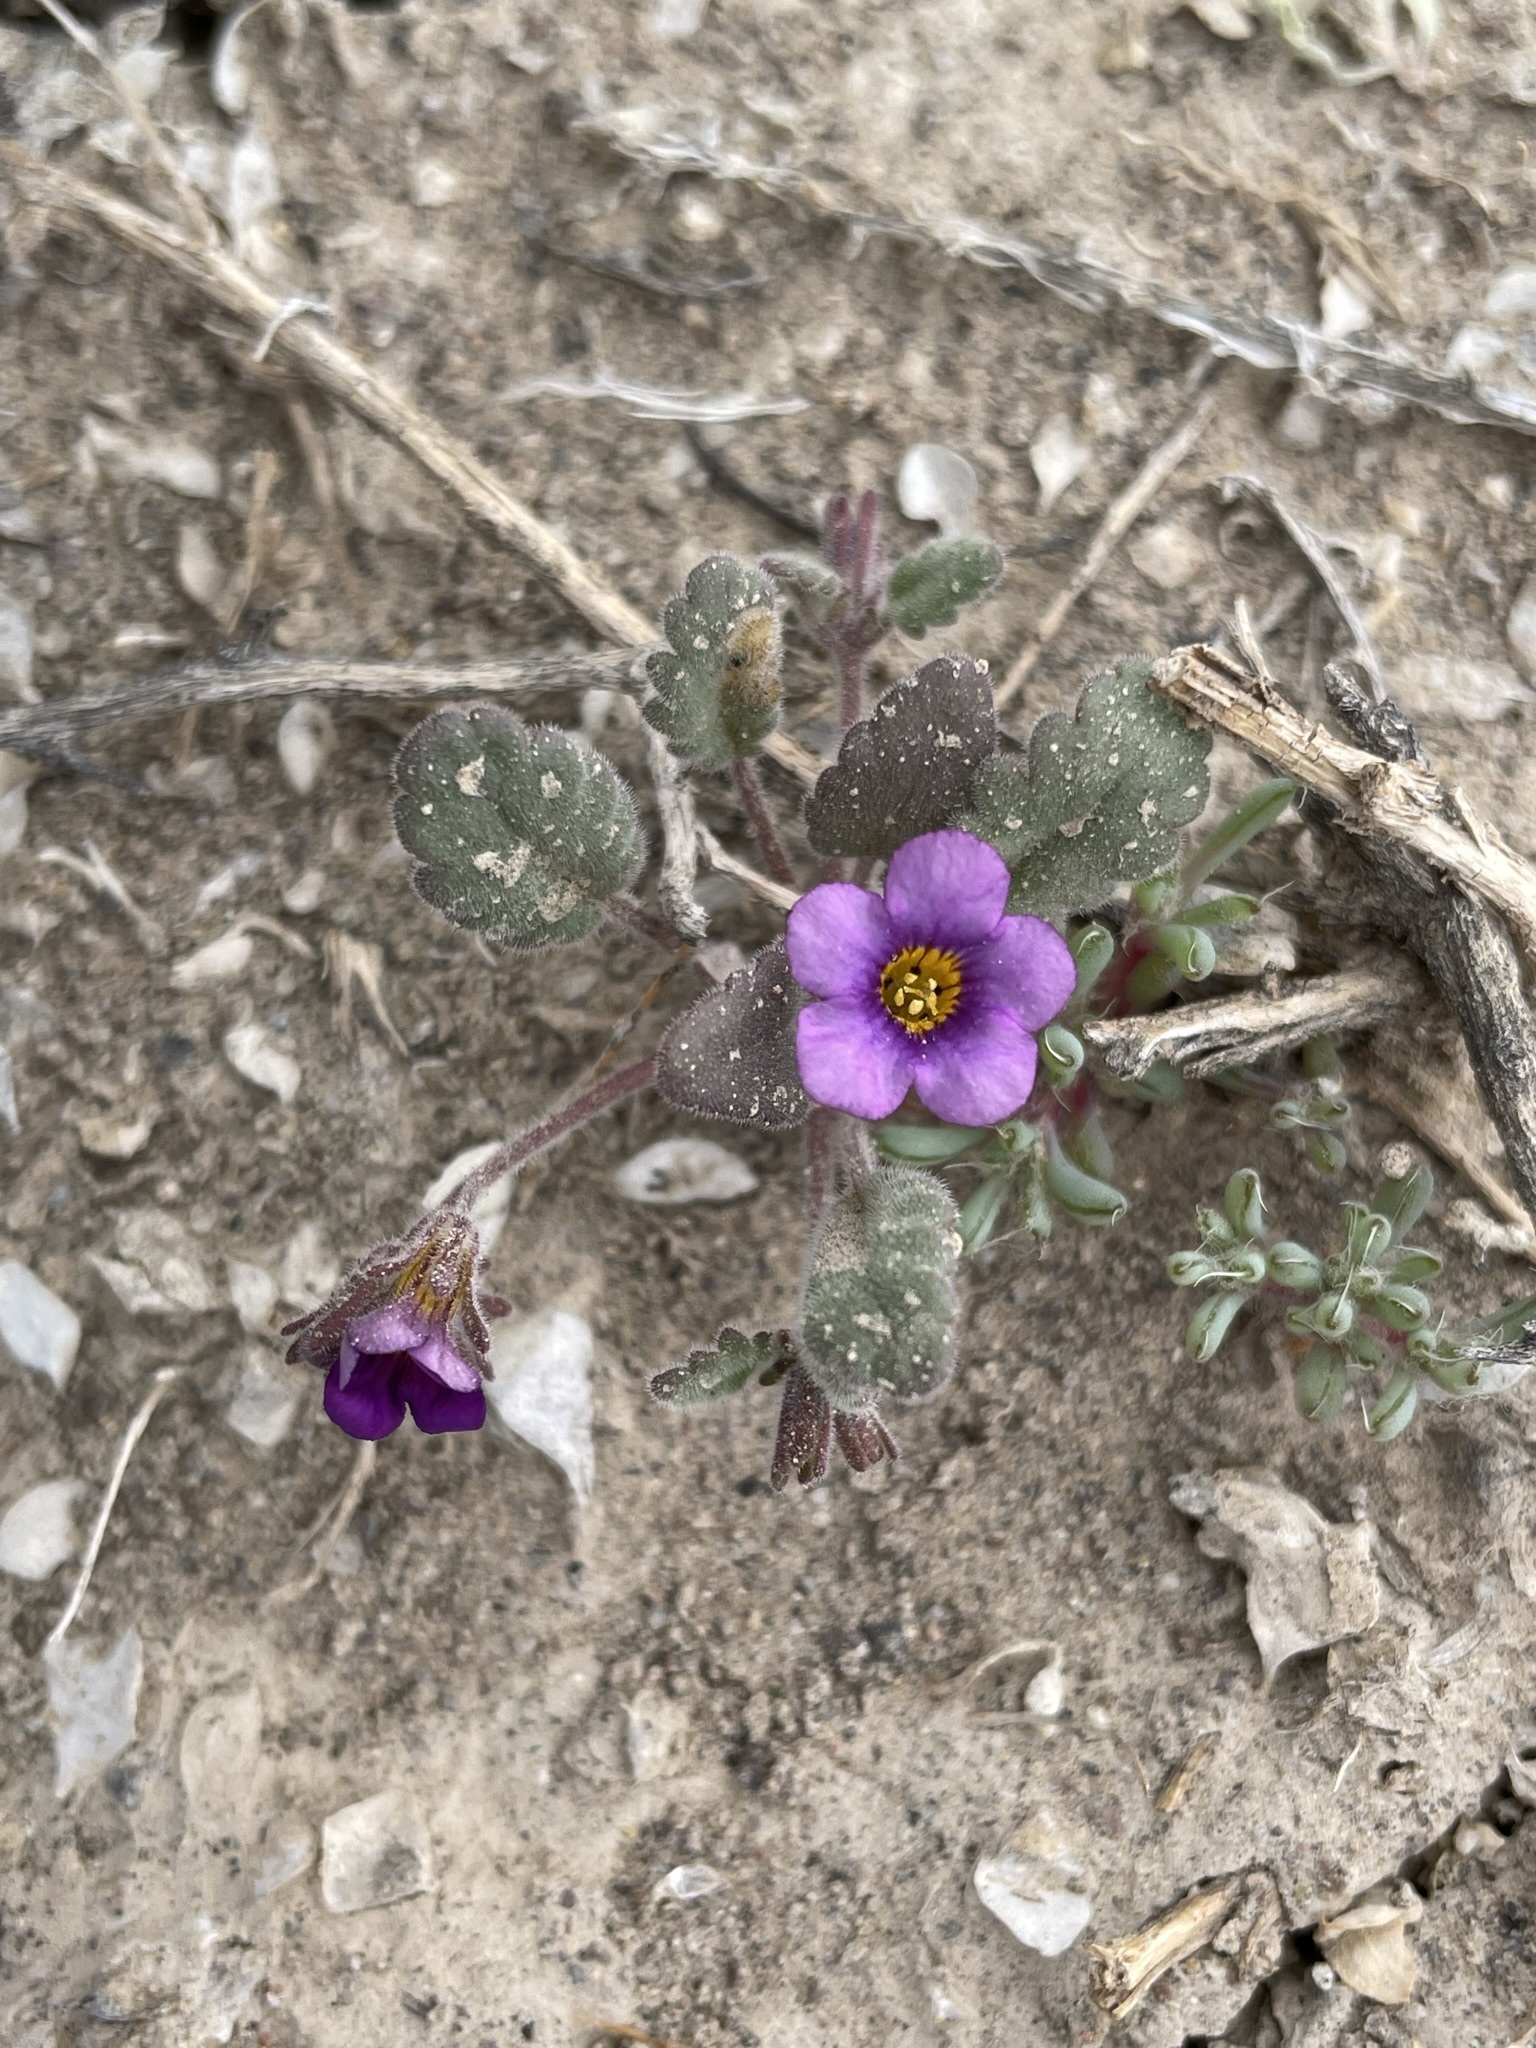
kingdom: Plantae
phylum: Tracheophyta
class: Magnoliopsida
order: Boraginales
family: Hydrophyllaceae
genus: Phacelia
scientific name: Phacelia gymnoclada
